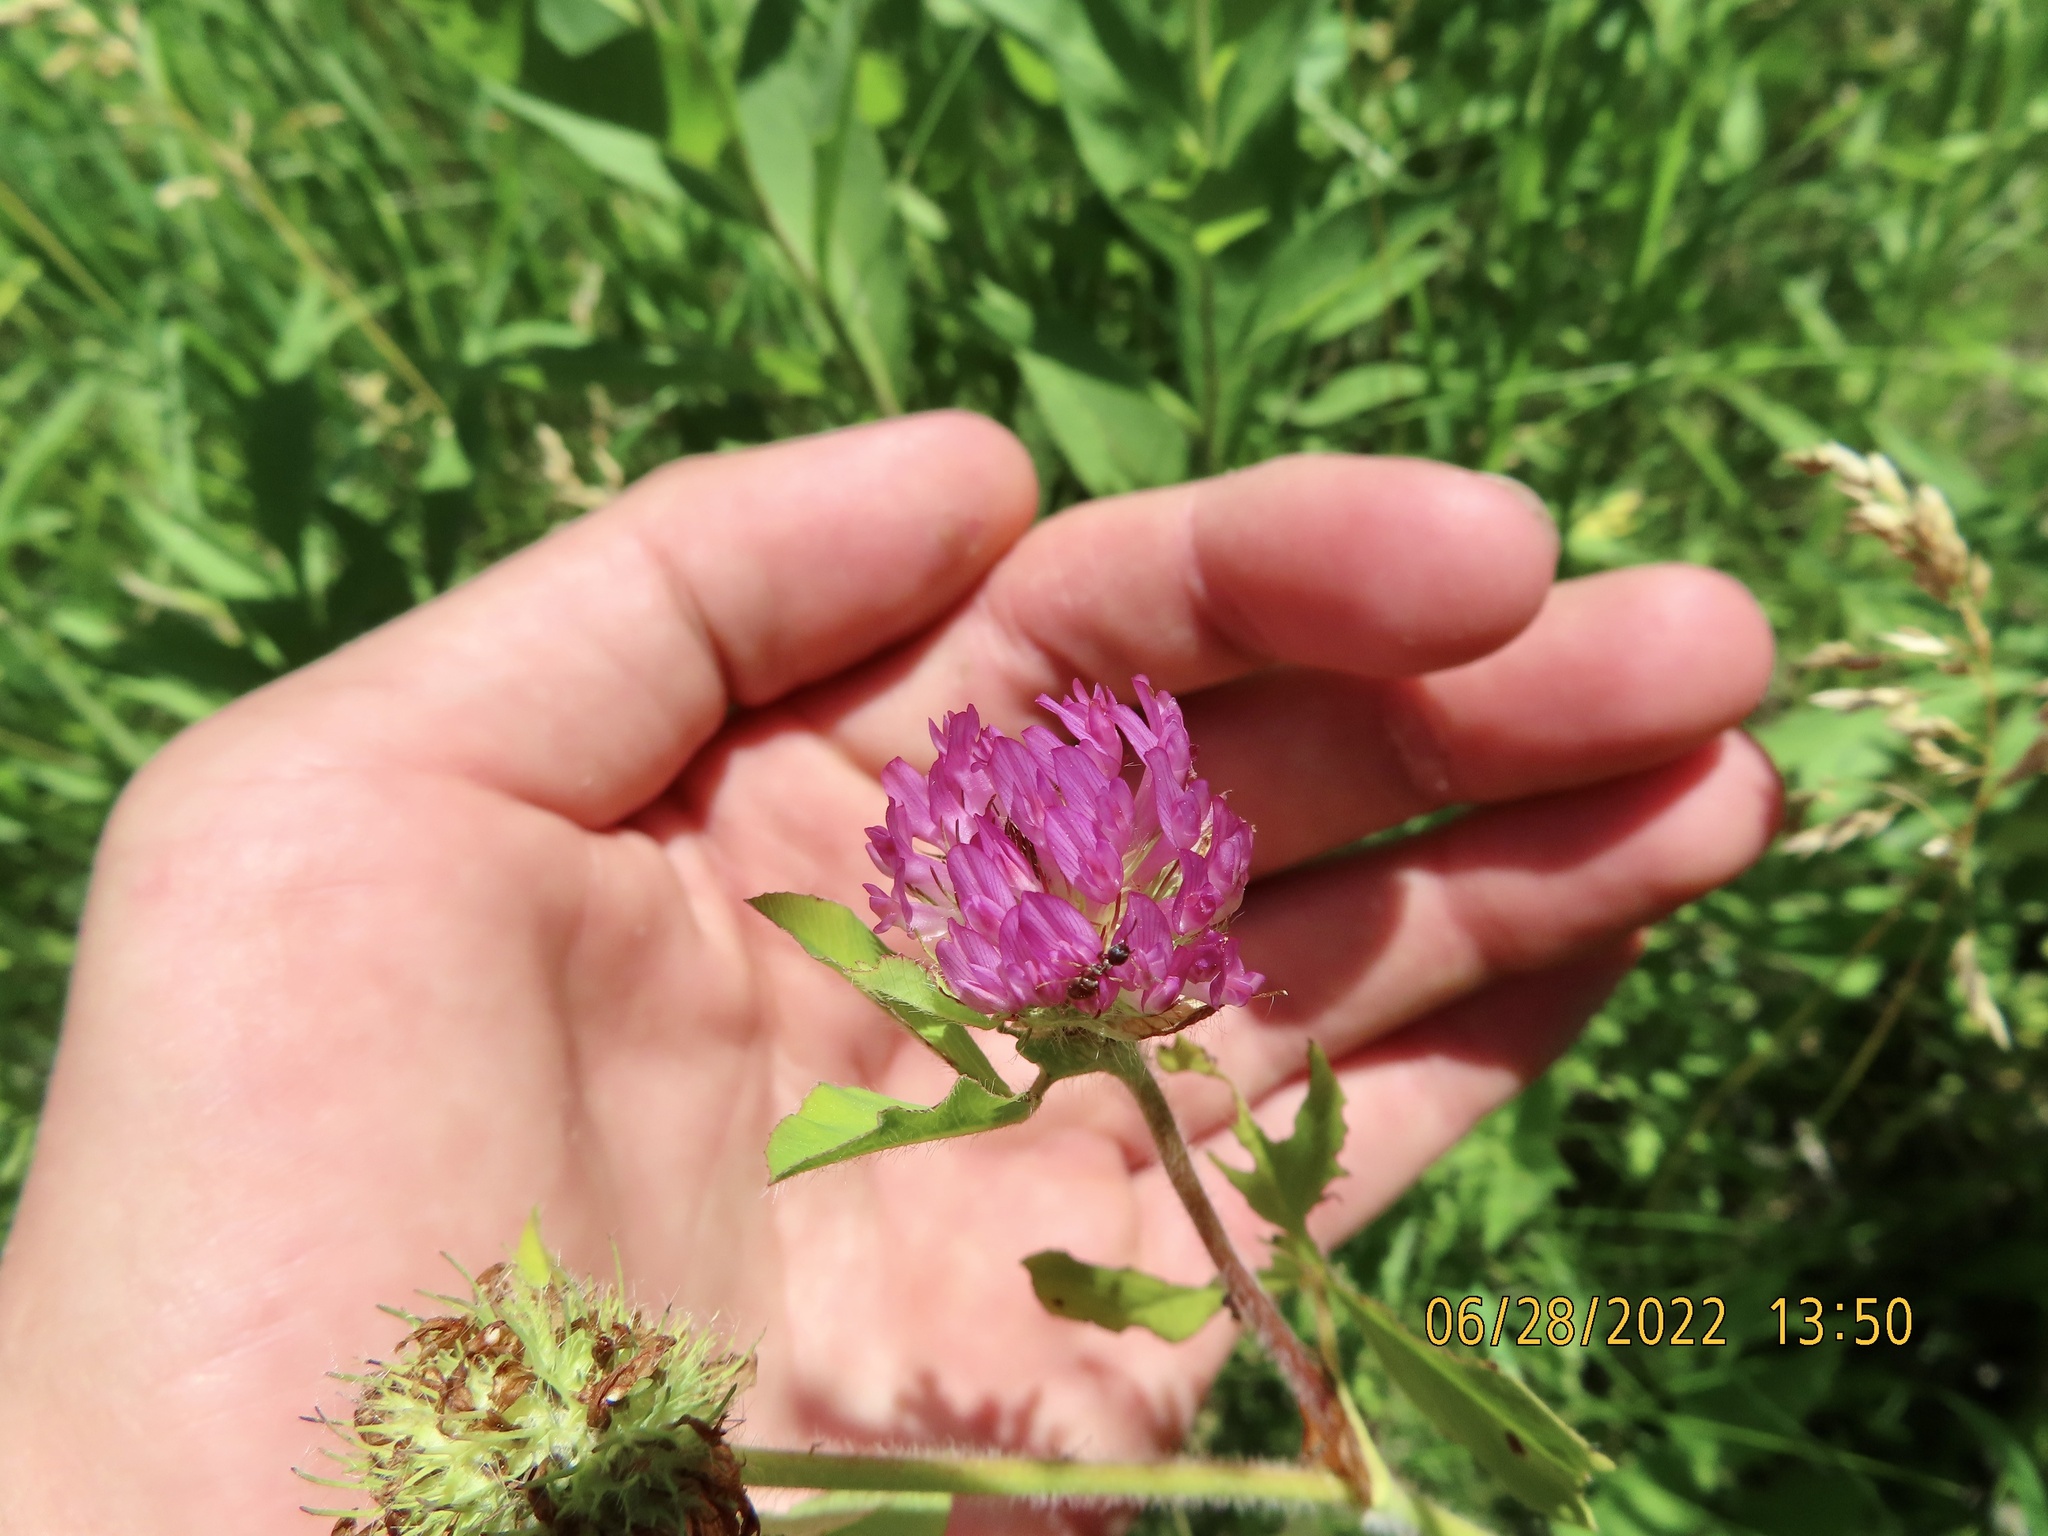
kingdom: Plantae
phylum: Tracheophyta
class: Magnoliopsida
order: Fabales
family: Fabaceae
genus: Trifolium
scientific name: Trifolium pratense
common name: Red clover
